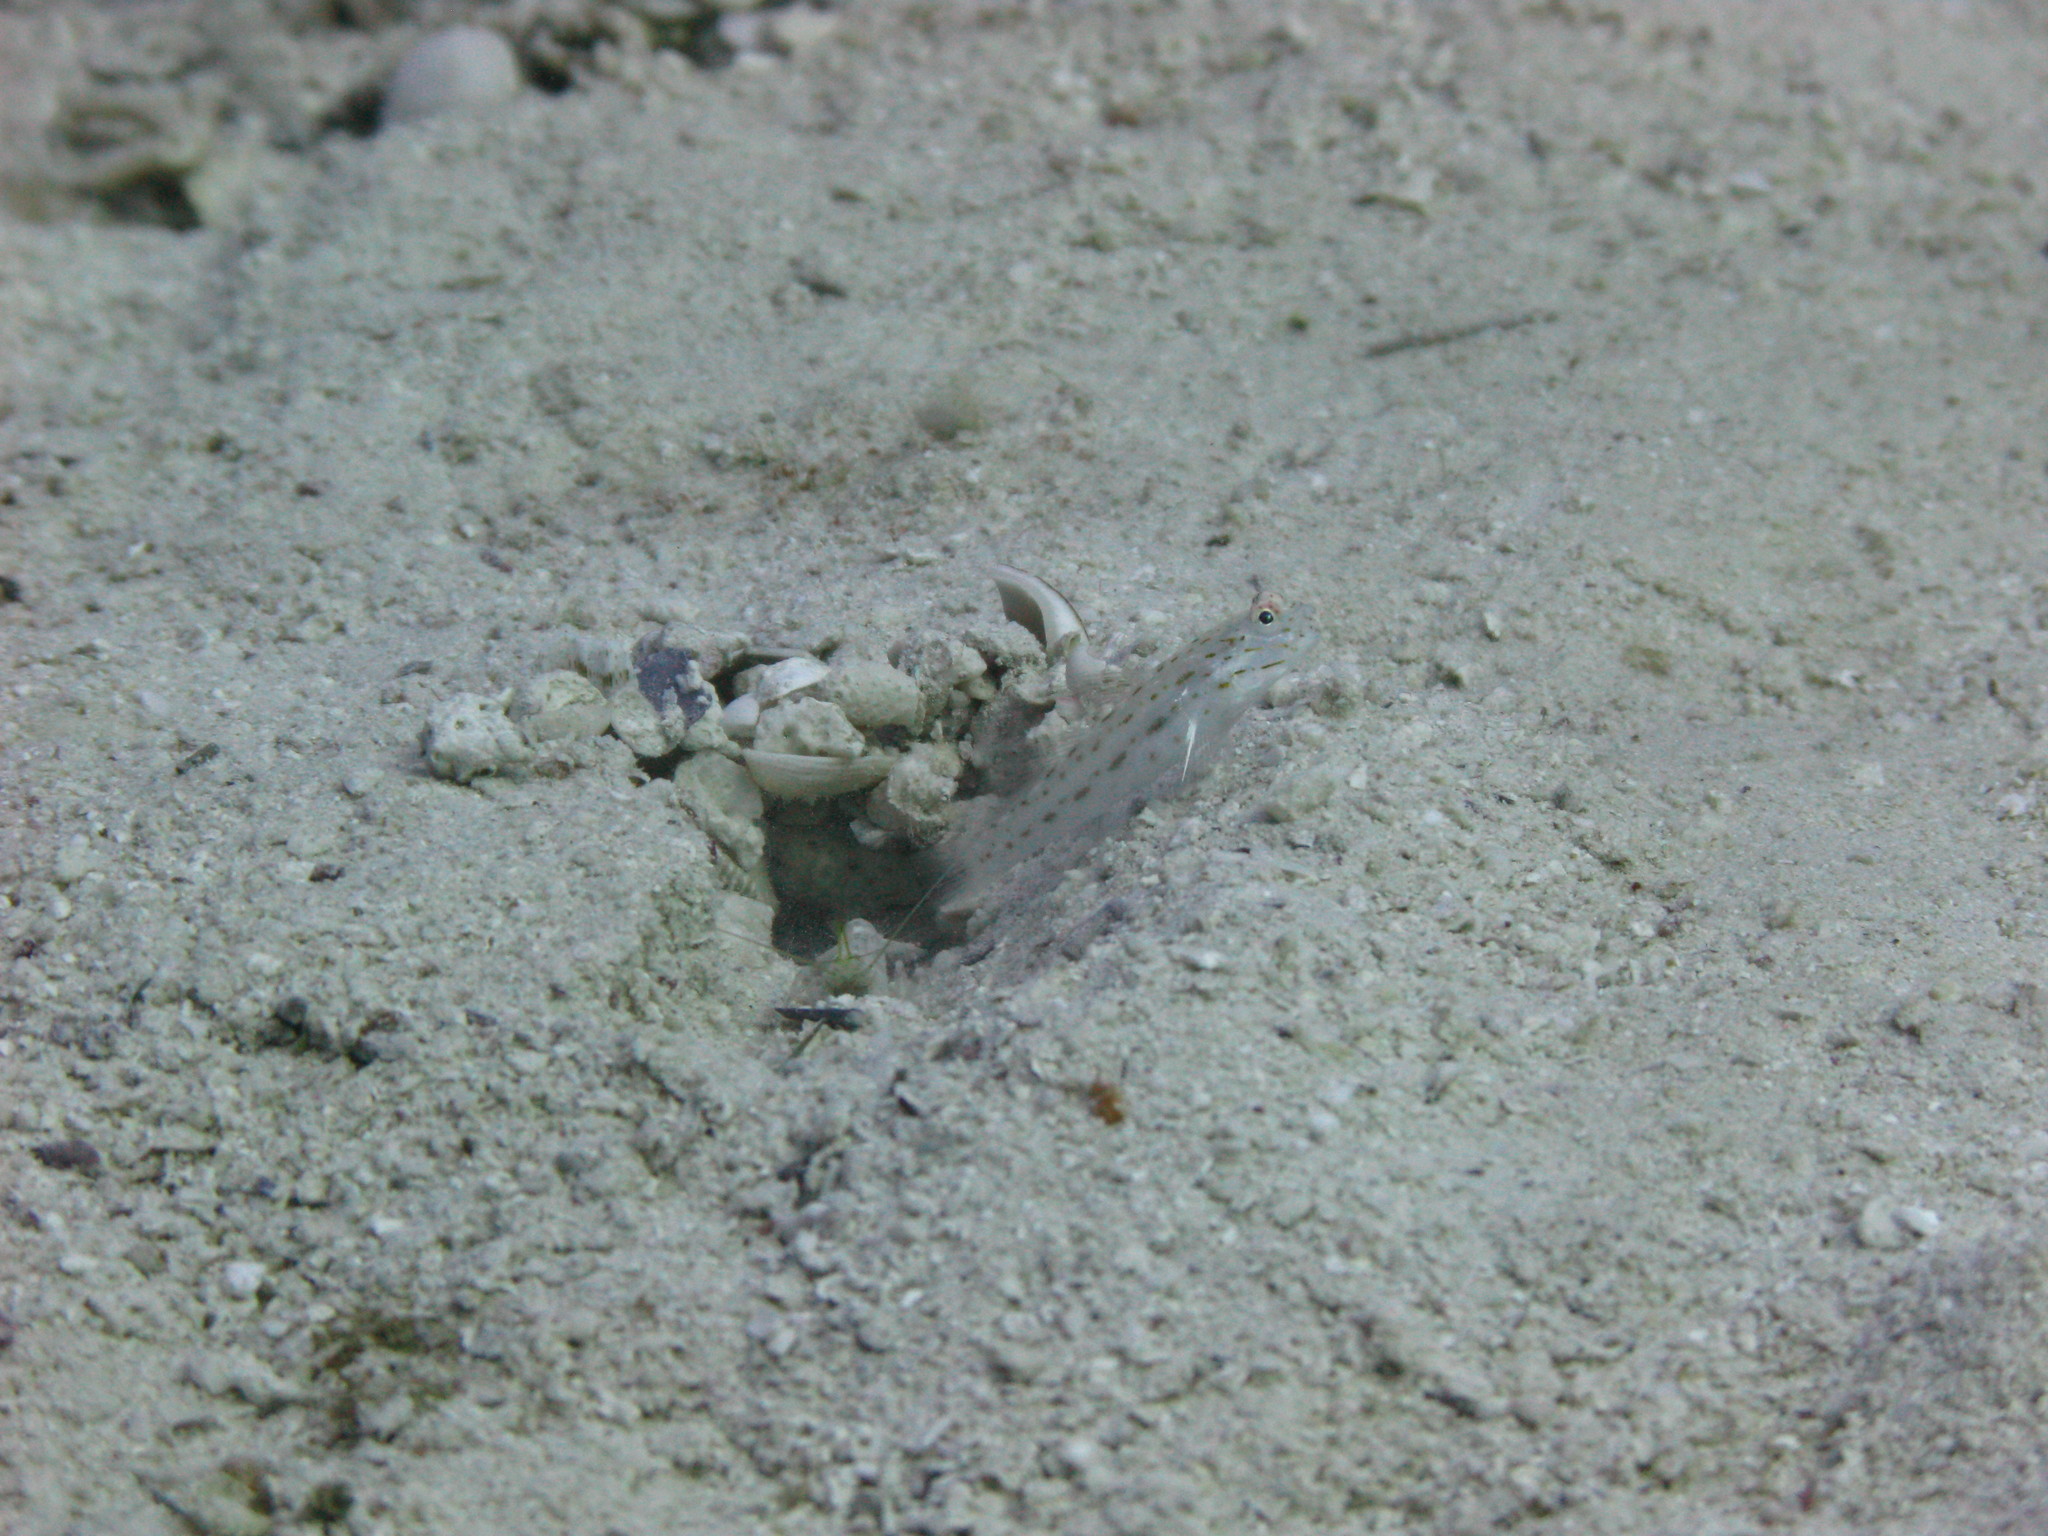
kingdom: Animalia
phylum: Chordata
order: Perciformes
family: Gobiidae
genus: Ctenogobiops
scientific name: Ctenogobiops crocineus
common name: Silverspot shrimpgoby
